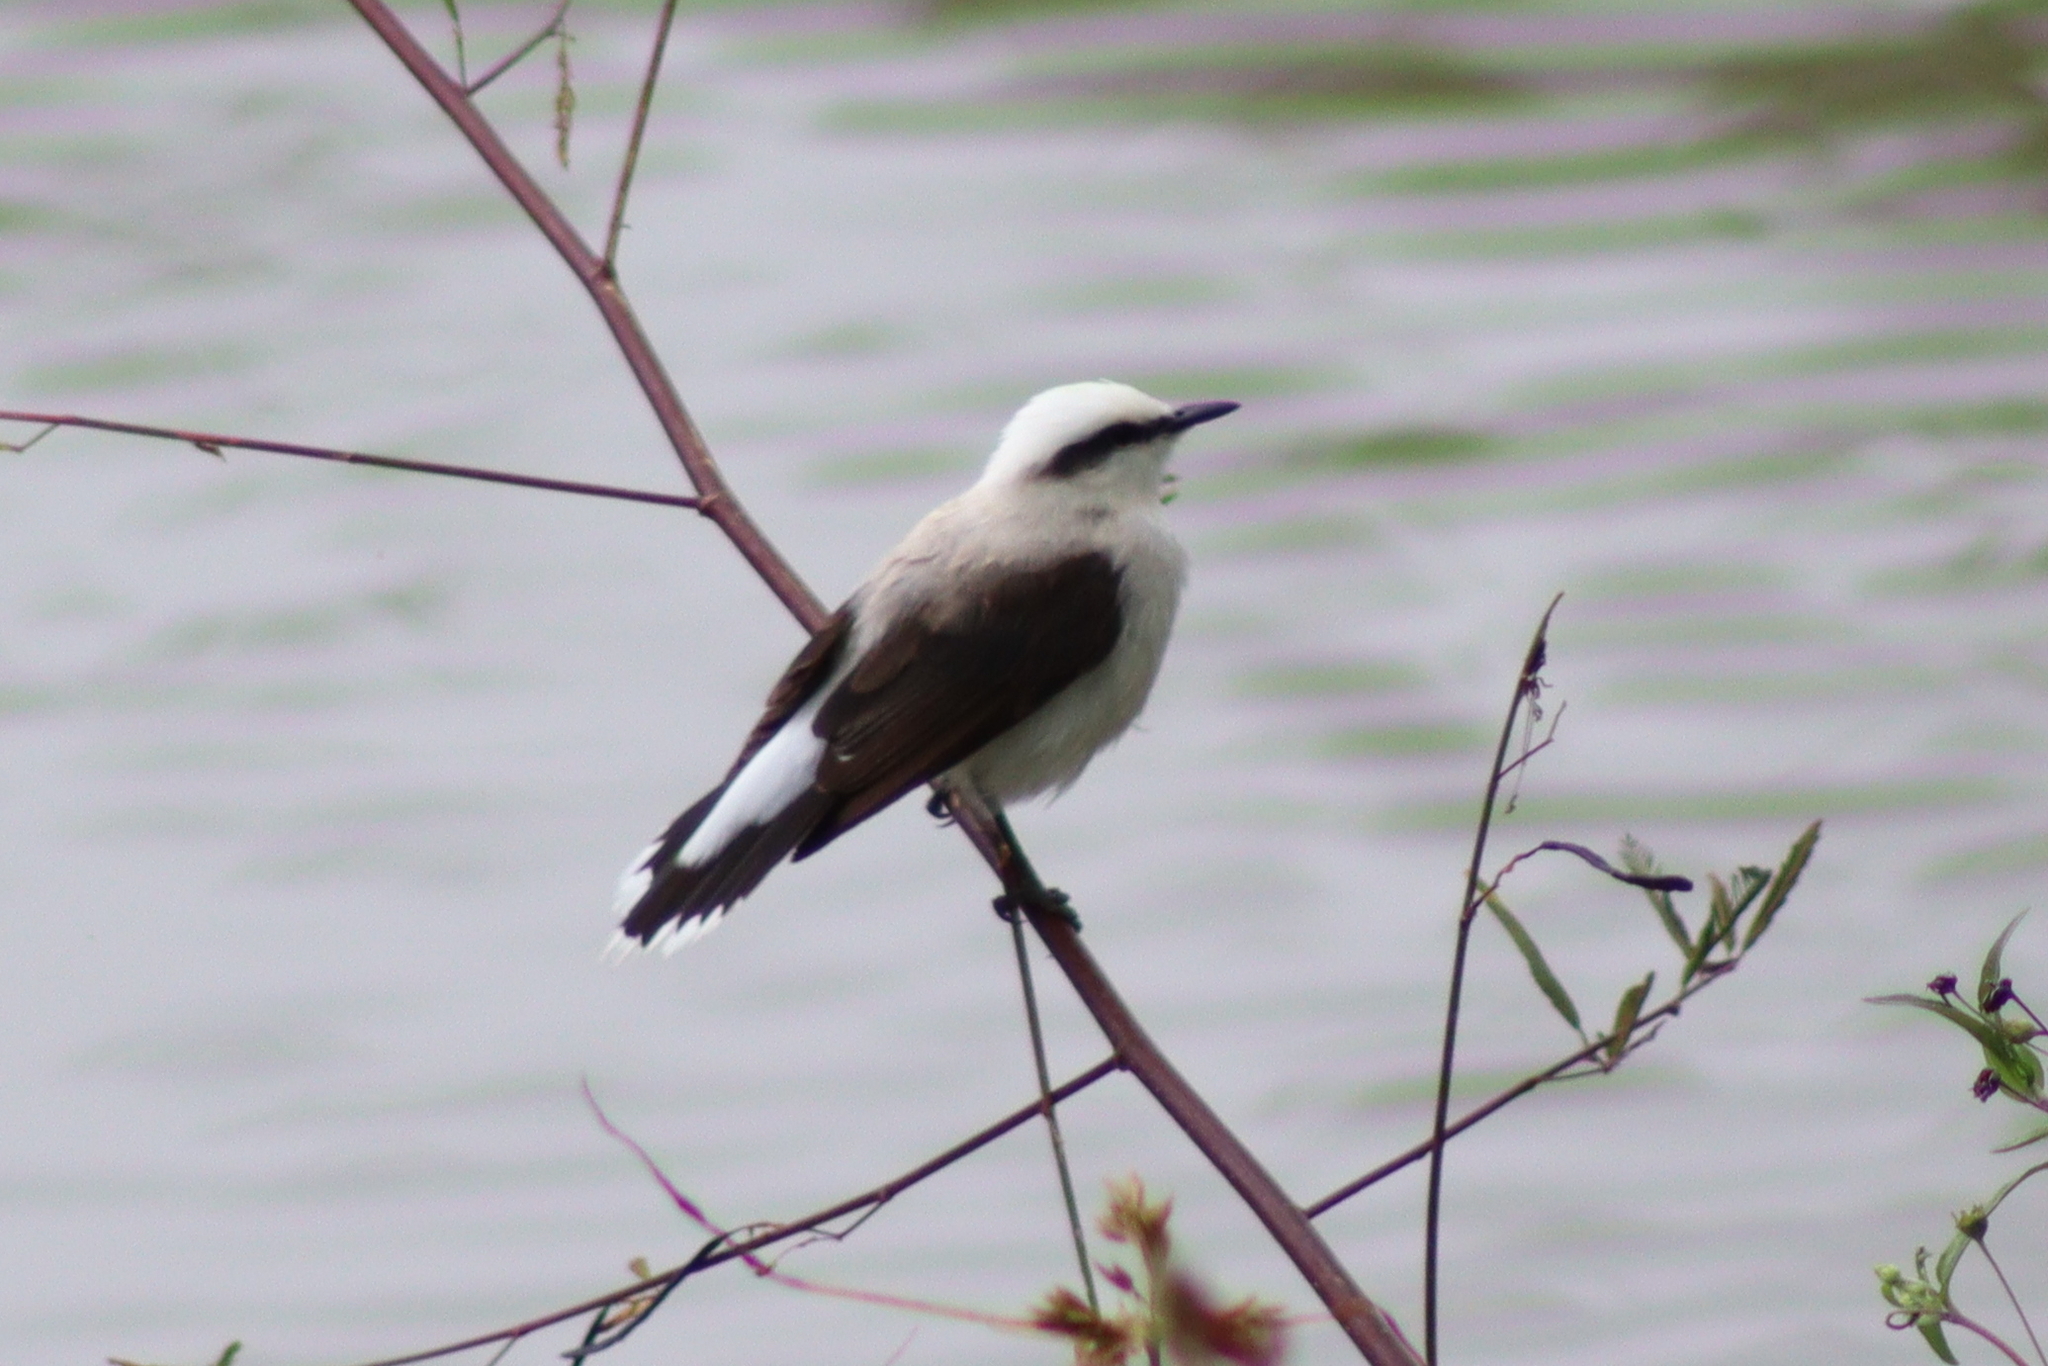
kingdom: Animalia
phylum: Chordata
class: Aves
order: Passeriformes
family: Tyrannidae
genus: Fluvicola
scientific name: Fluvicola nengeta
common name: Masked water tyrant
